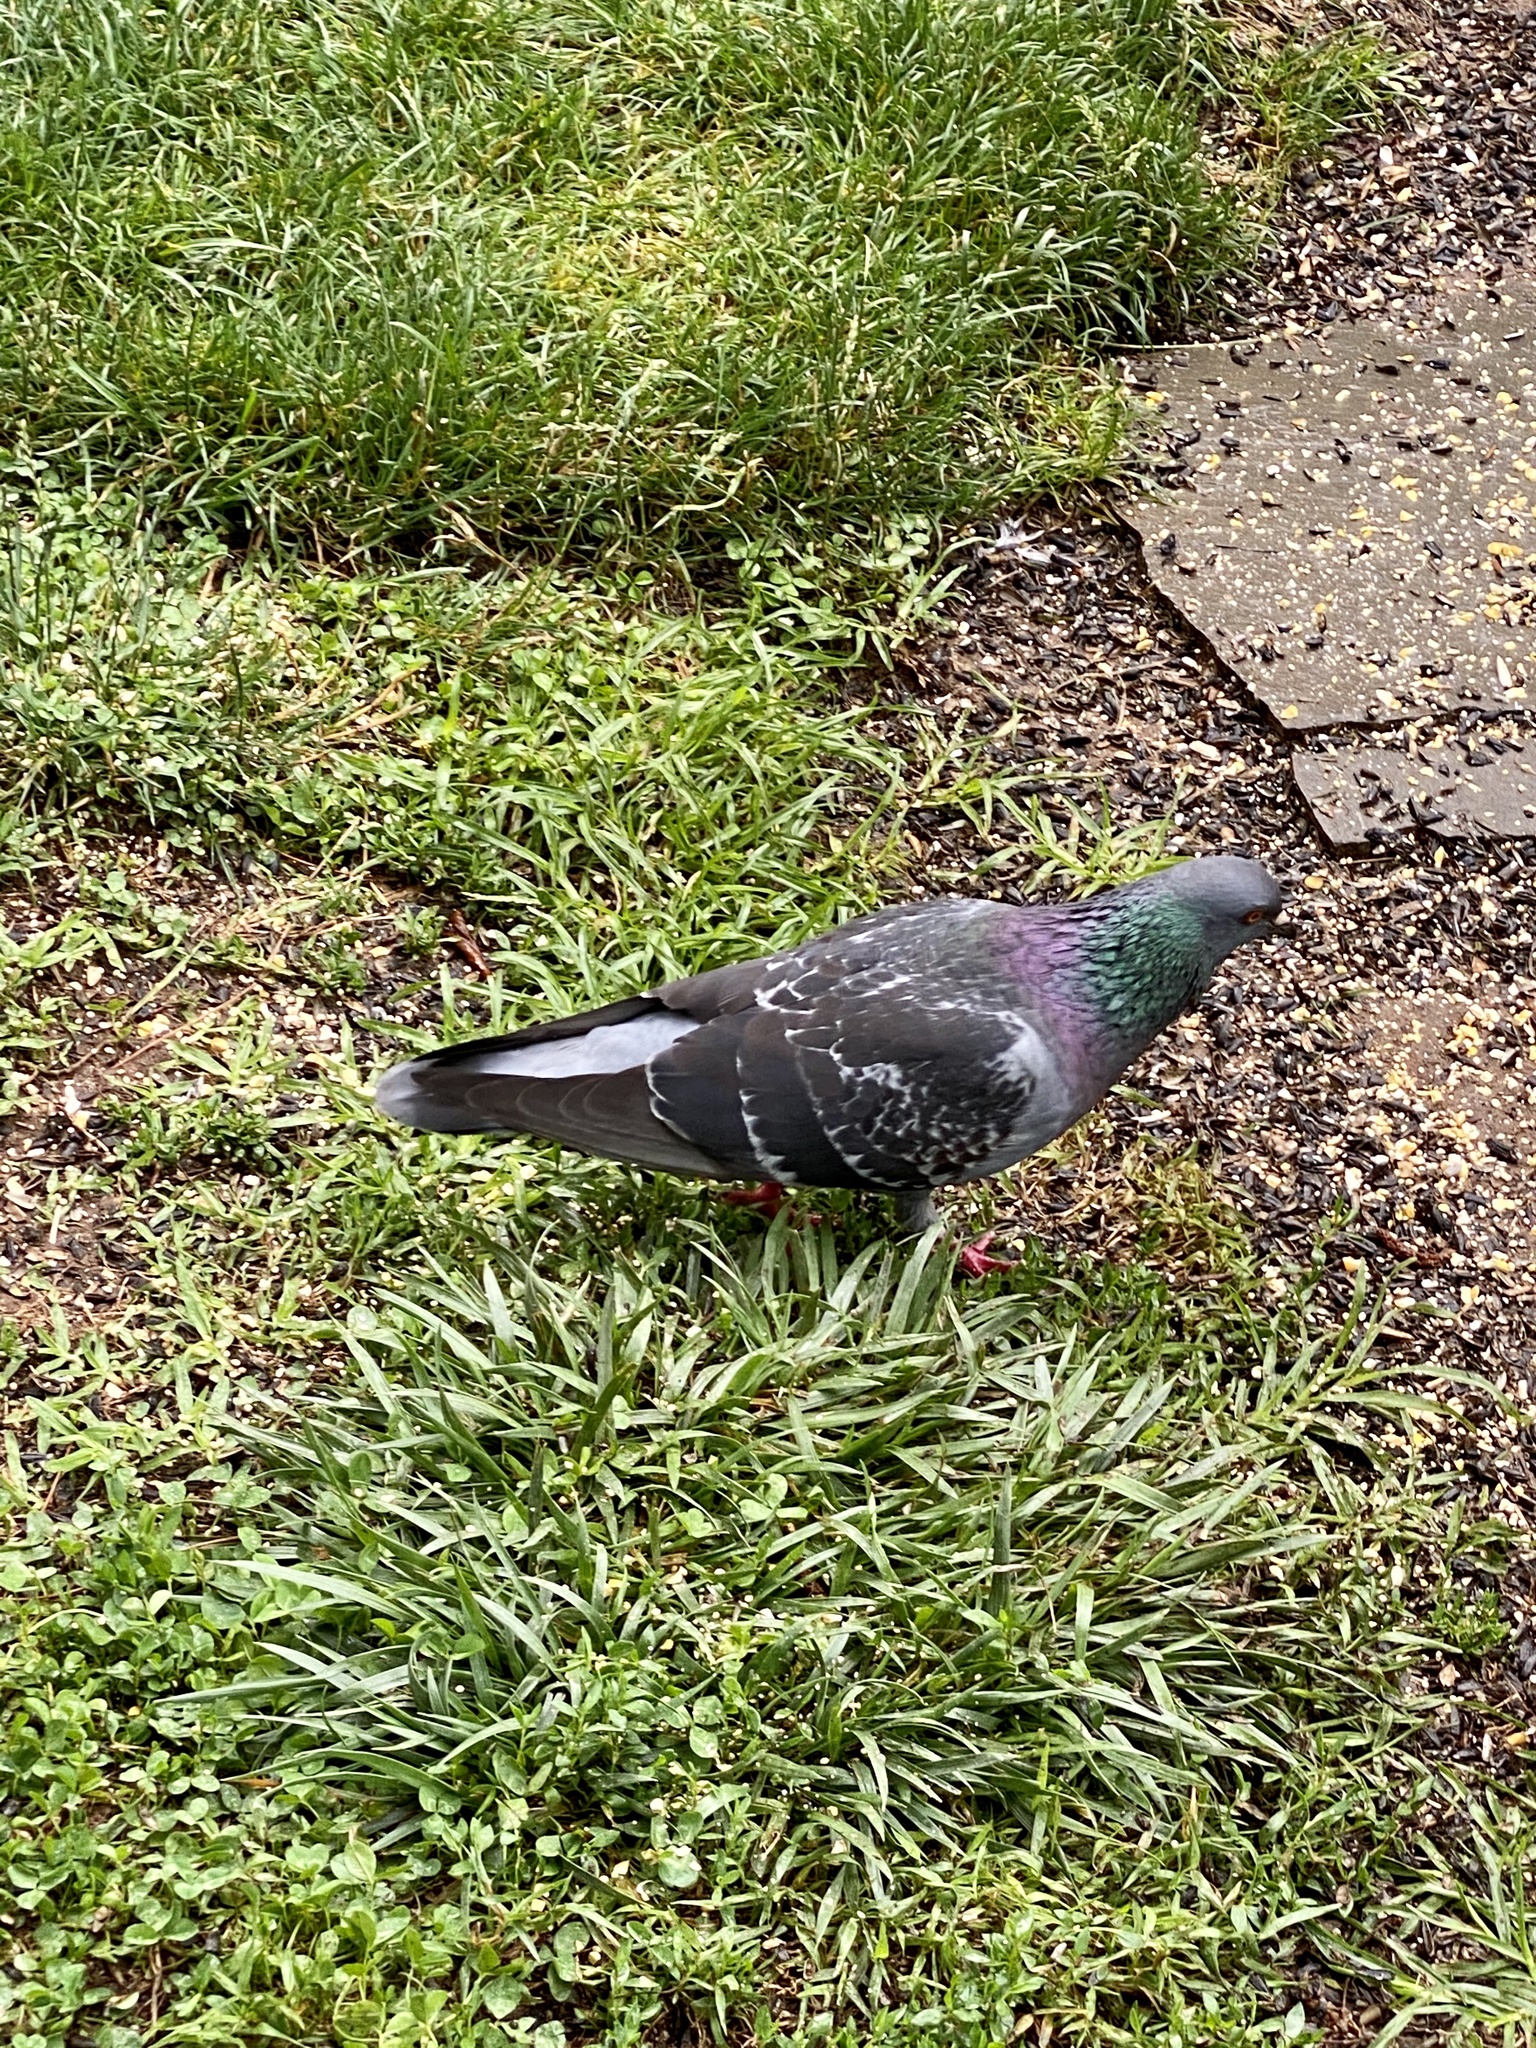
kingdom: Animalia
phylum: Chordata
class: Aves
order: Columbiformes
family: Columbidae
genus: Columba
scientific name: Columba livia
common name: Rock pigeon
